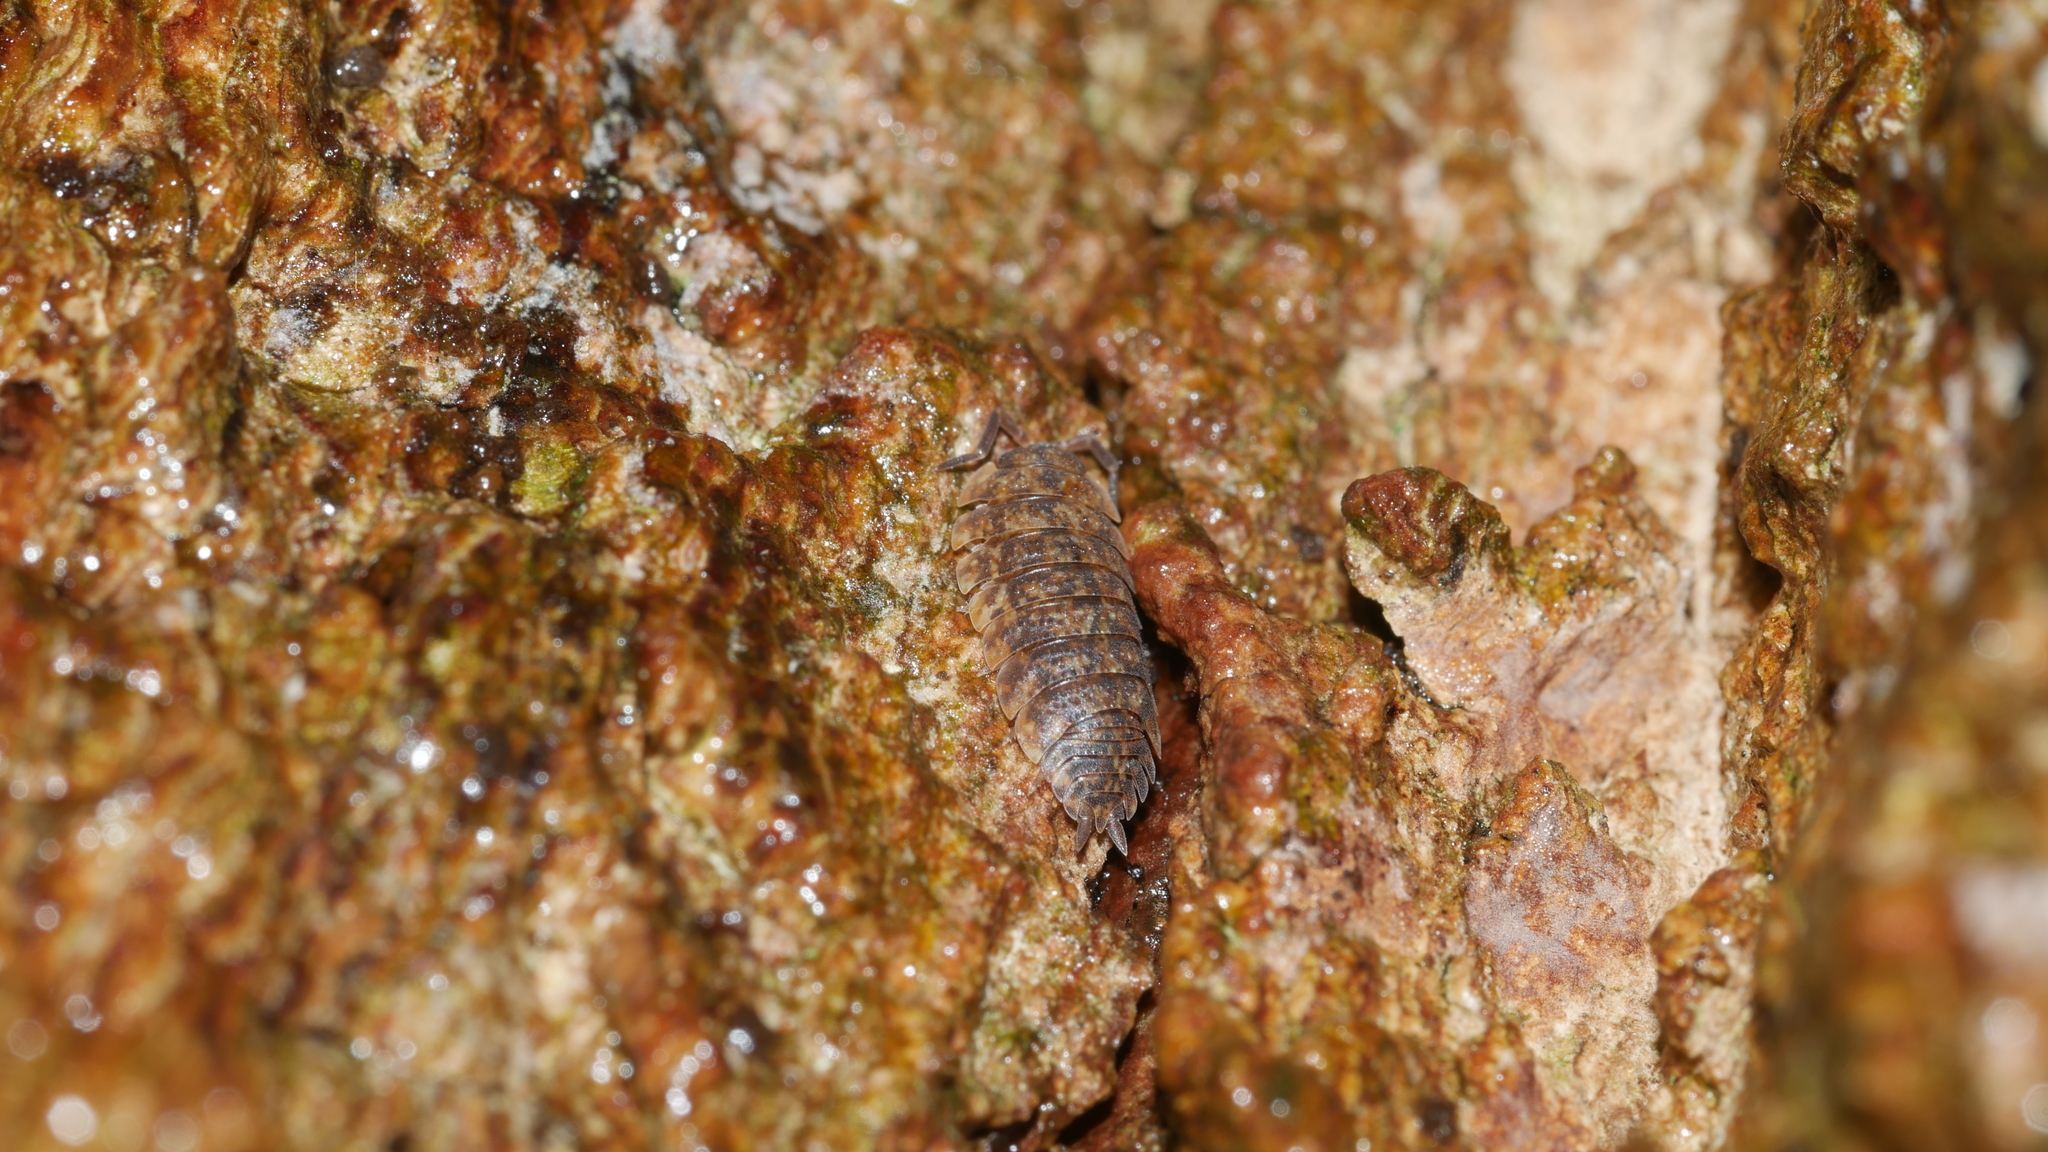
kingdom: Animalia
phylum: Arthropoda
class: Malacostraca
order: Isopoda
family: Porcellionidae
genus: Porcellio
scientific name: Porcellio scaber
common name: Common rough woodlouse
